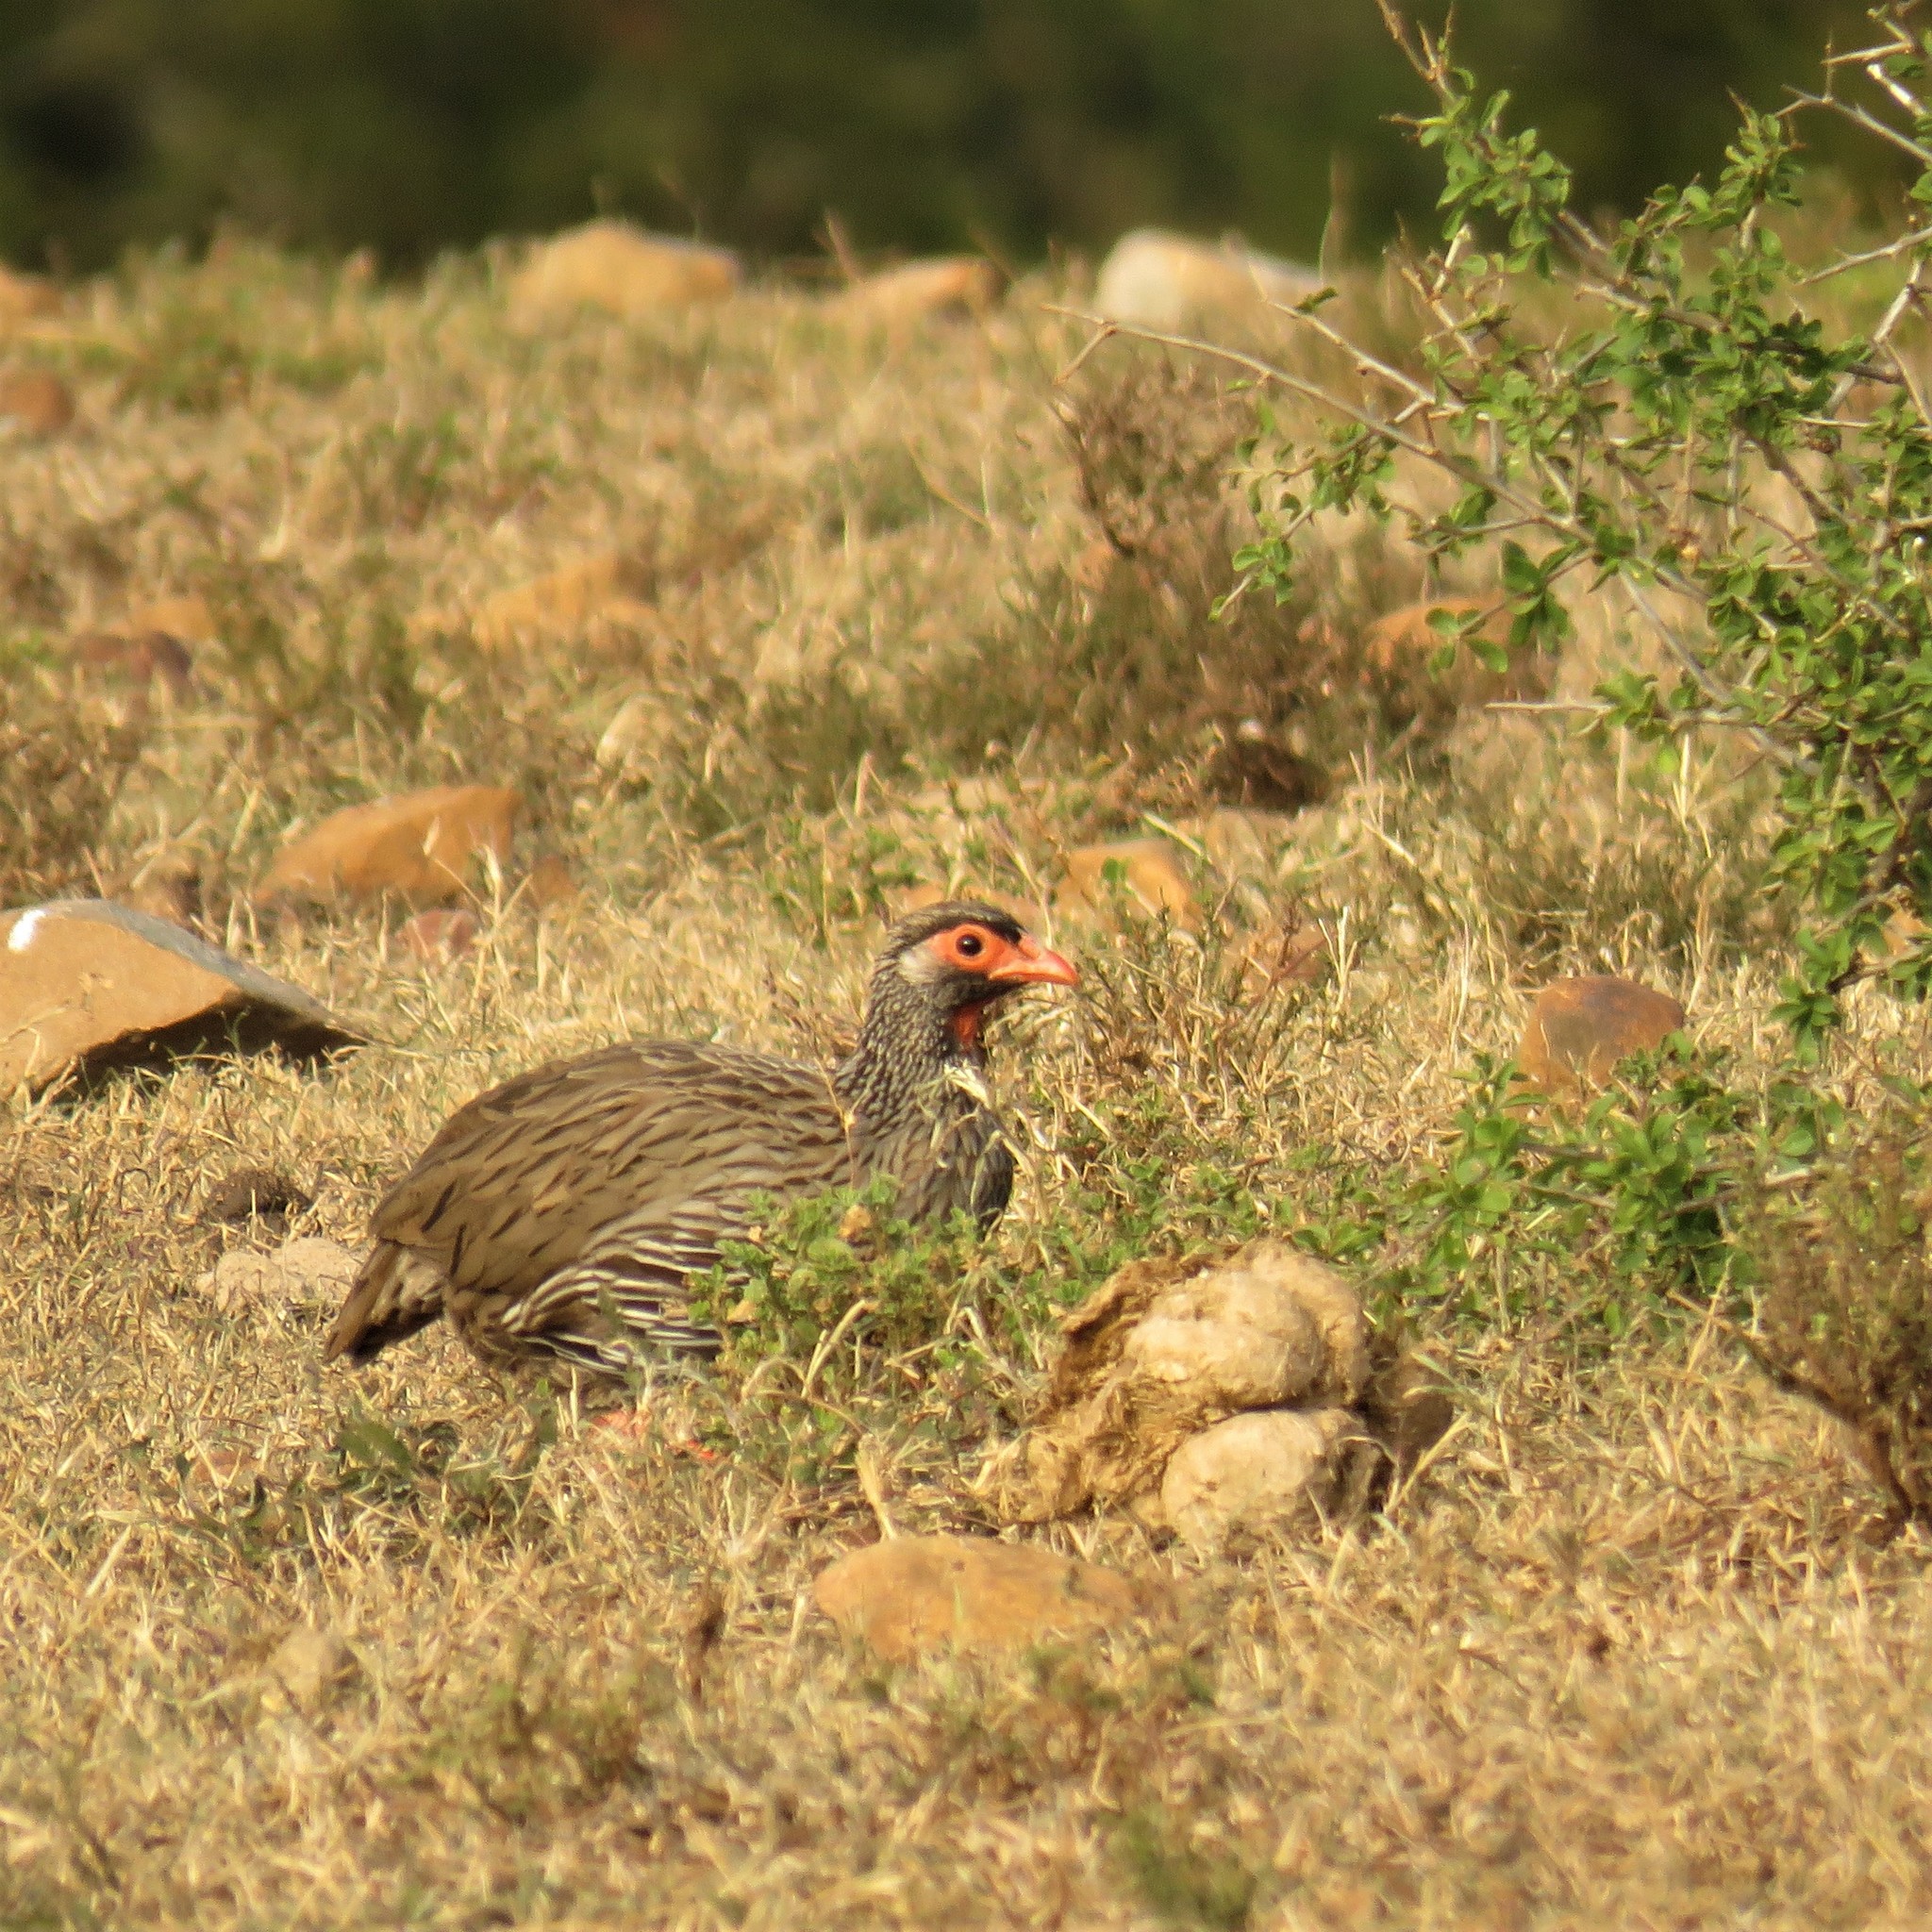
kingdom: Animalia
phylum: Chordata
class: Aves
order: Galliformes
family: Phasianidae
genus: Pternistis
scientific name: Pternistis afer
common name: Red-necked spurfowl
